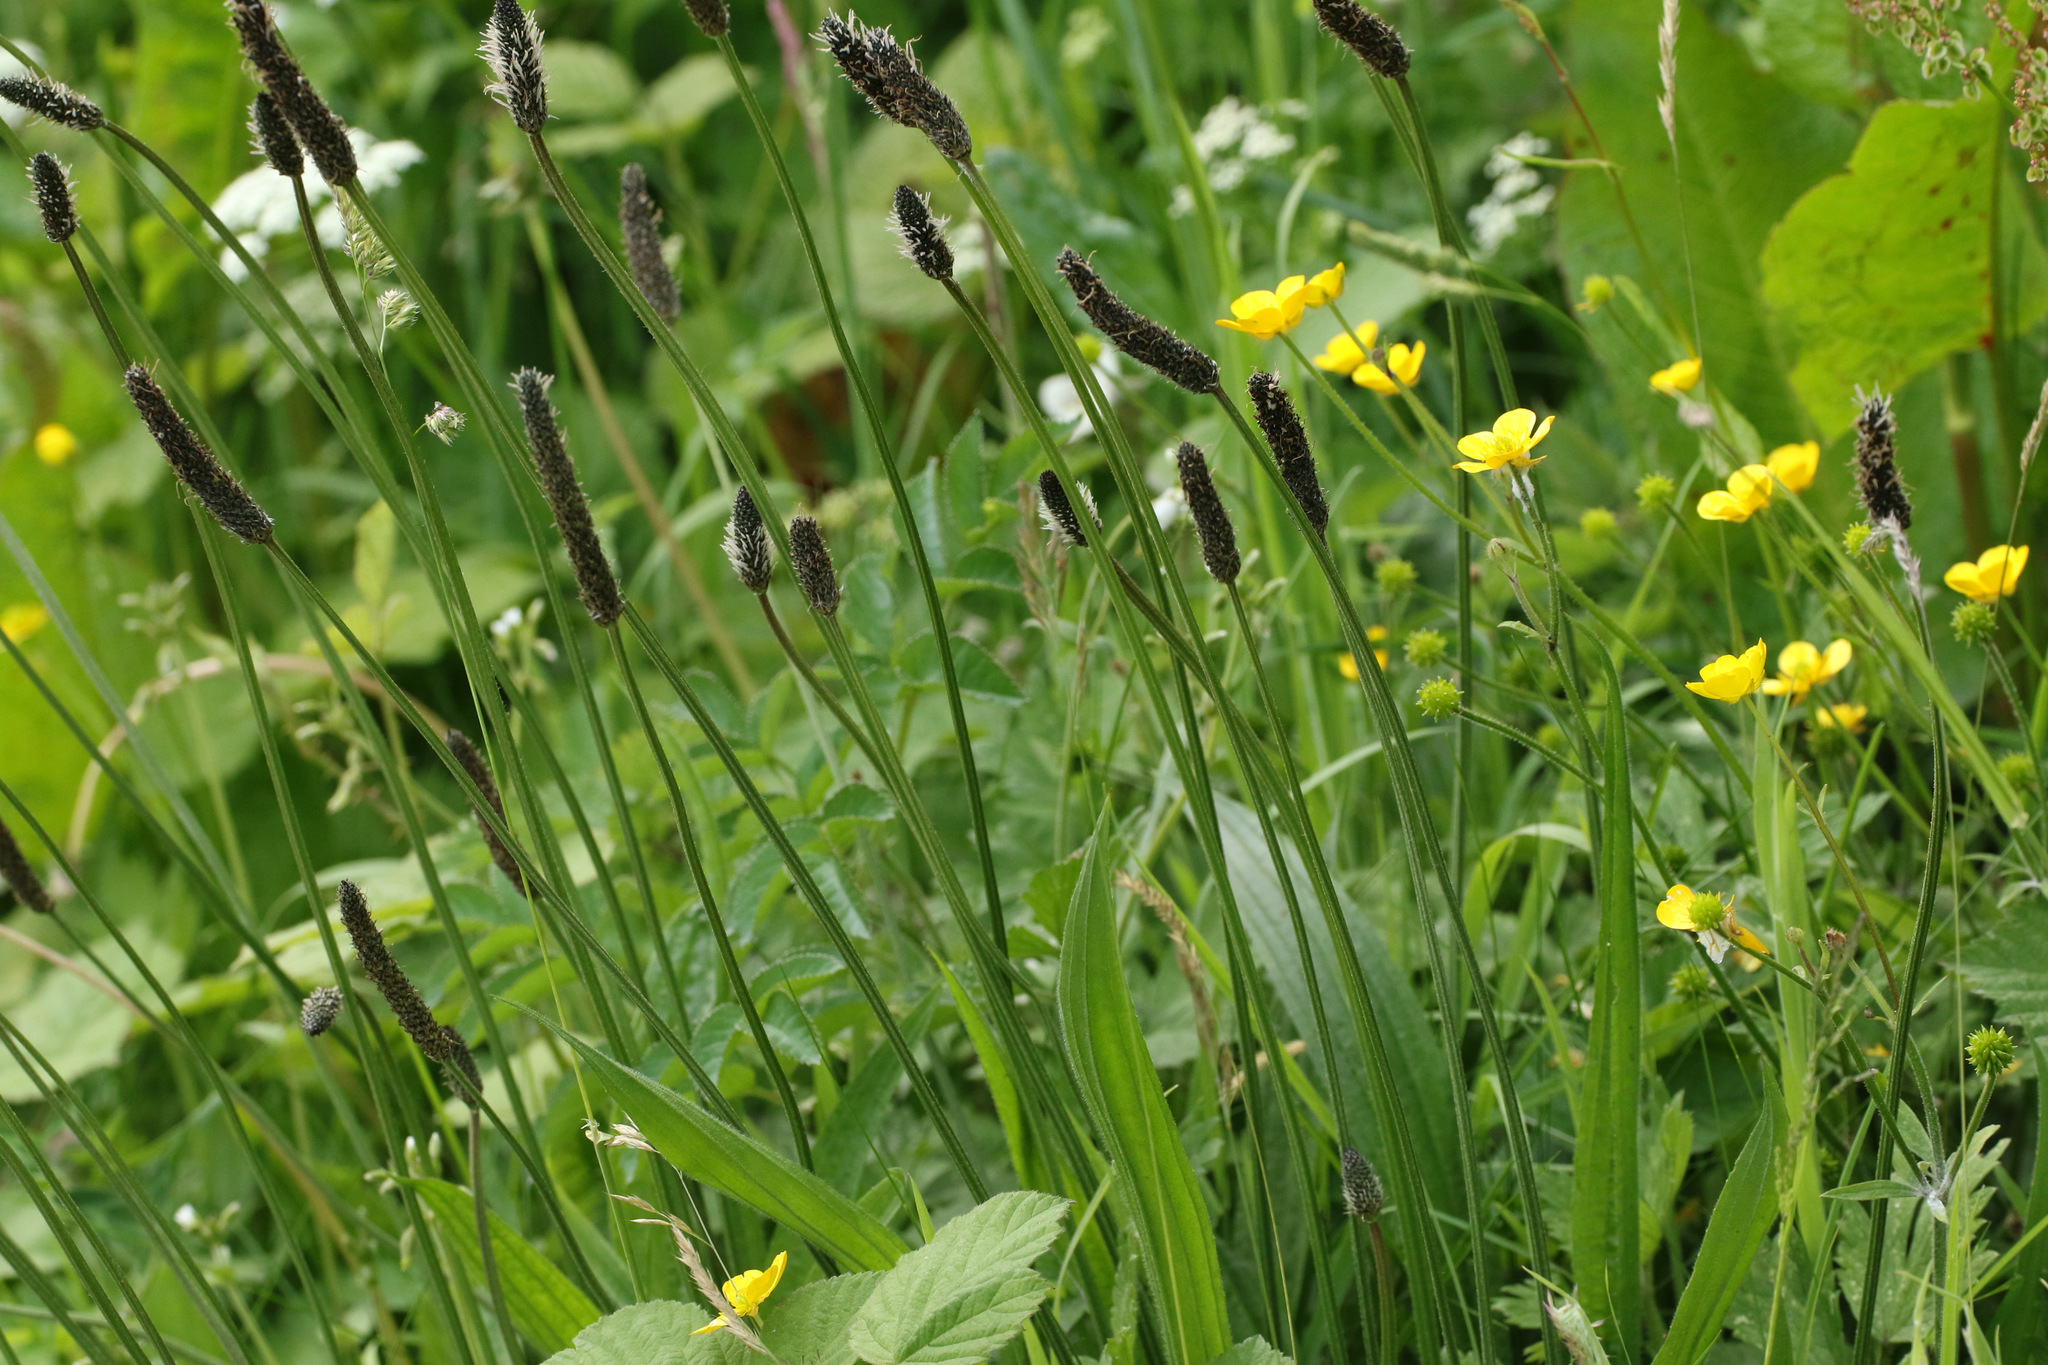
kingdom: Plantae
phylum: Tracheophyta
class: Magnoliopsida
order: Lamiales
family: Plantaginaceae
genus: Plantago
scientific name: Plantago lanceolata
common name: Ribwort plantain
